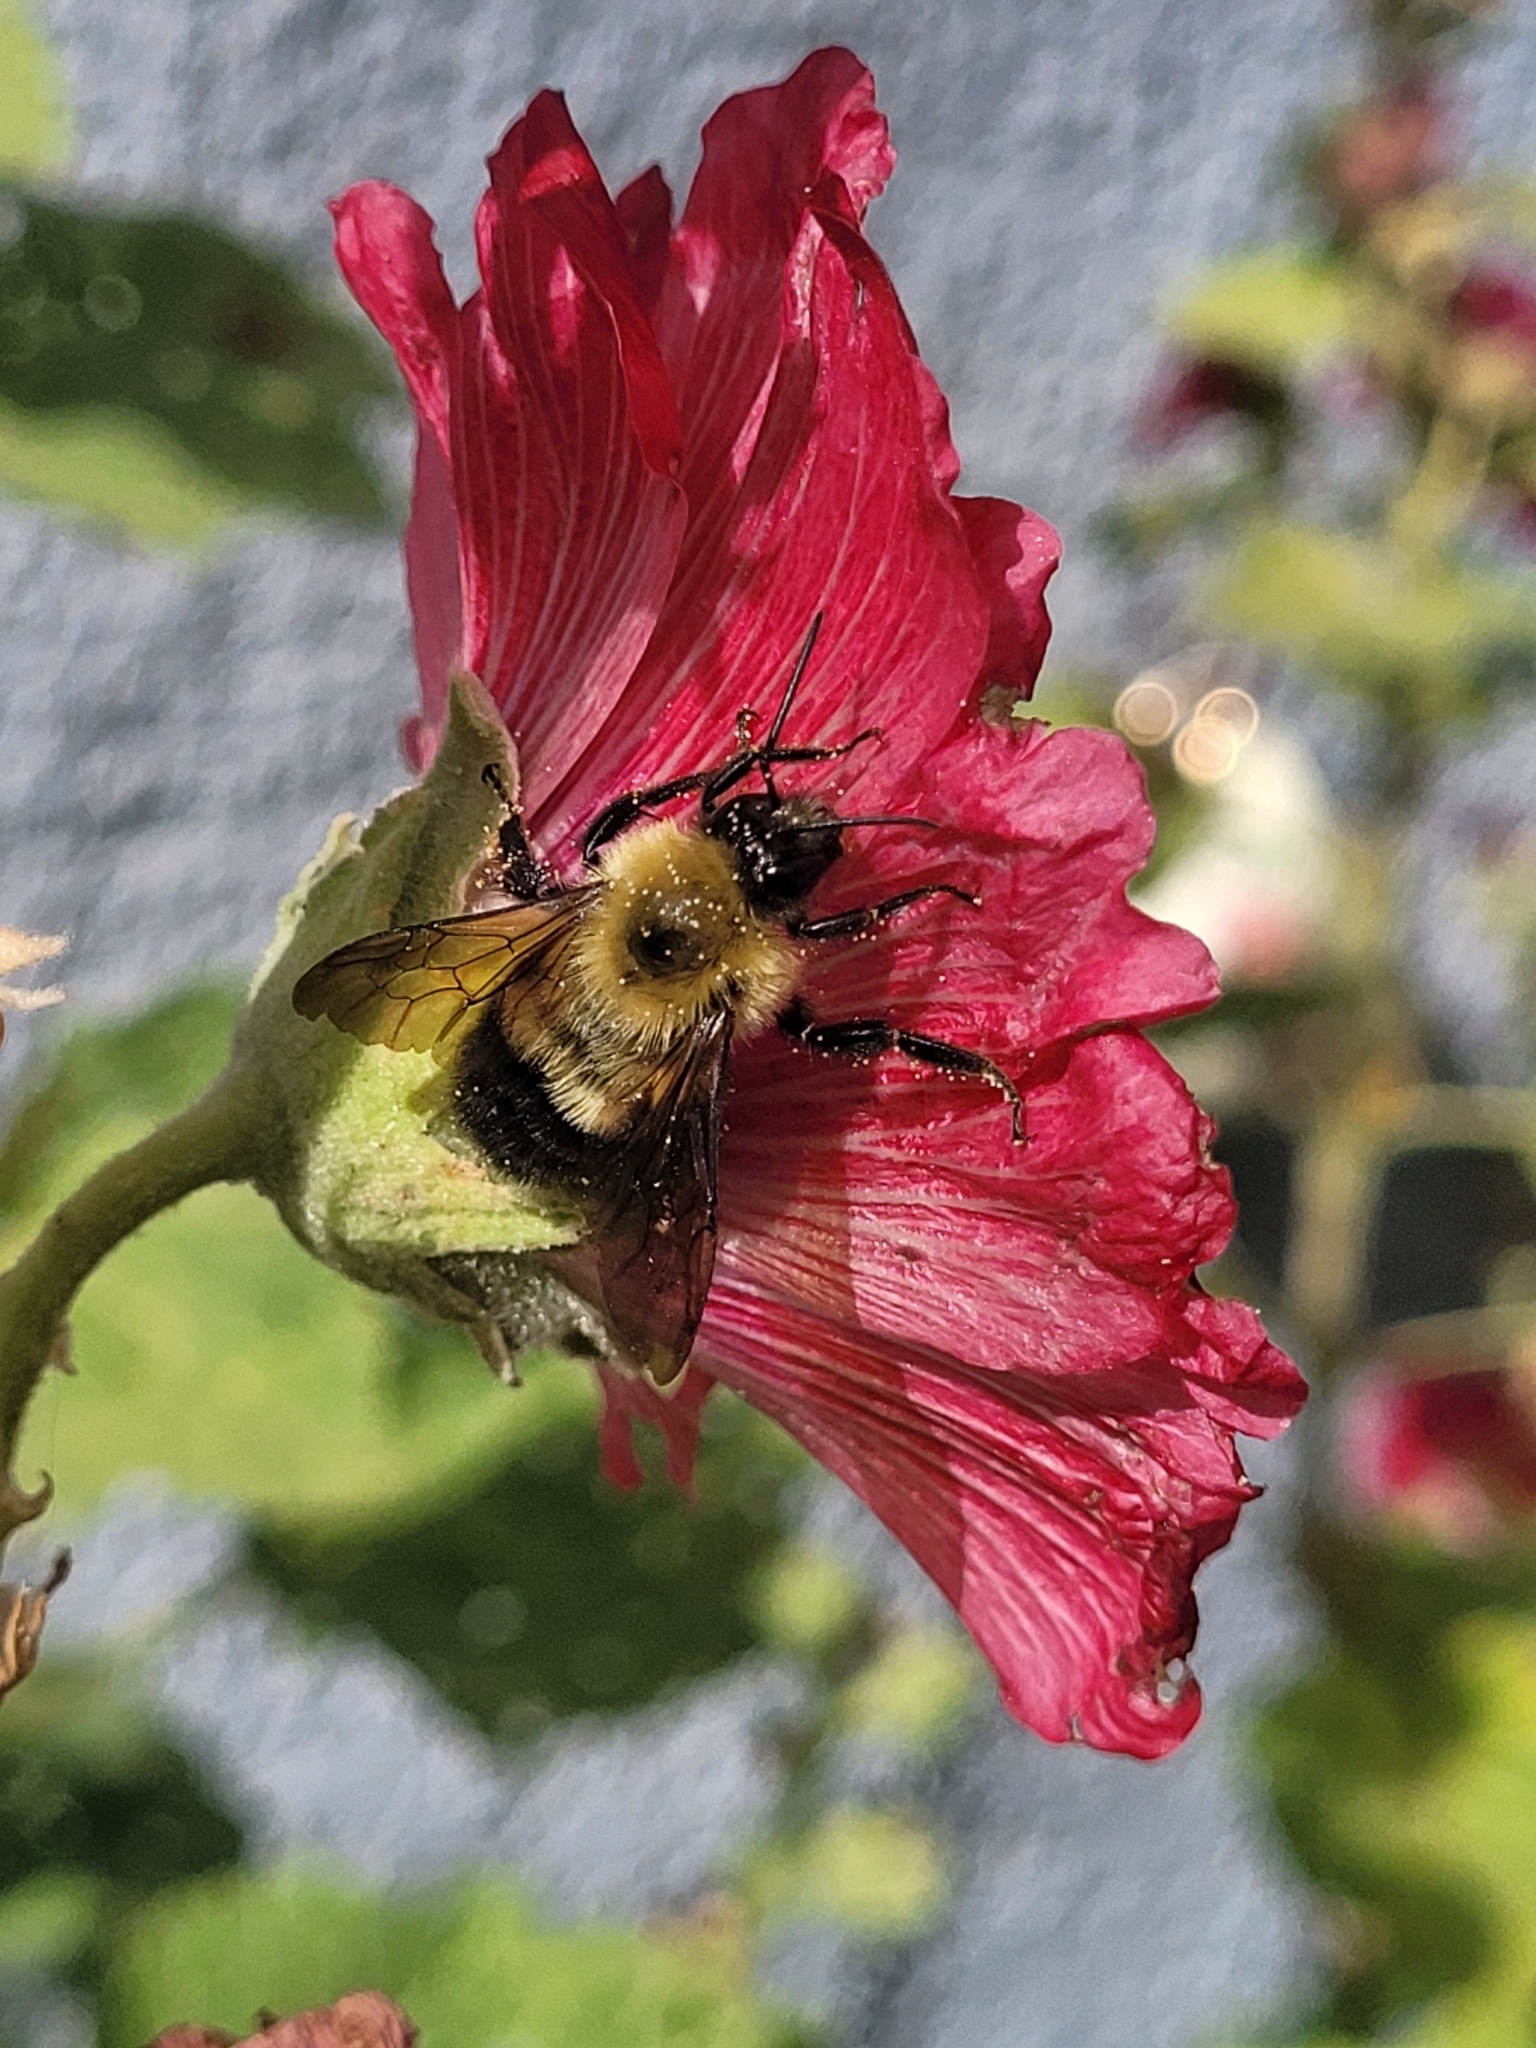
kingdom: Animalia
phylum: Arthropoda
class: Insecta
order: Hymenoptera
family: Apidae
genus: Bombus
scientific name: Bombus bimaculatus
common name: Two-spotted bumble bee
